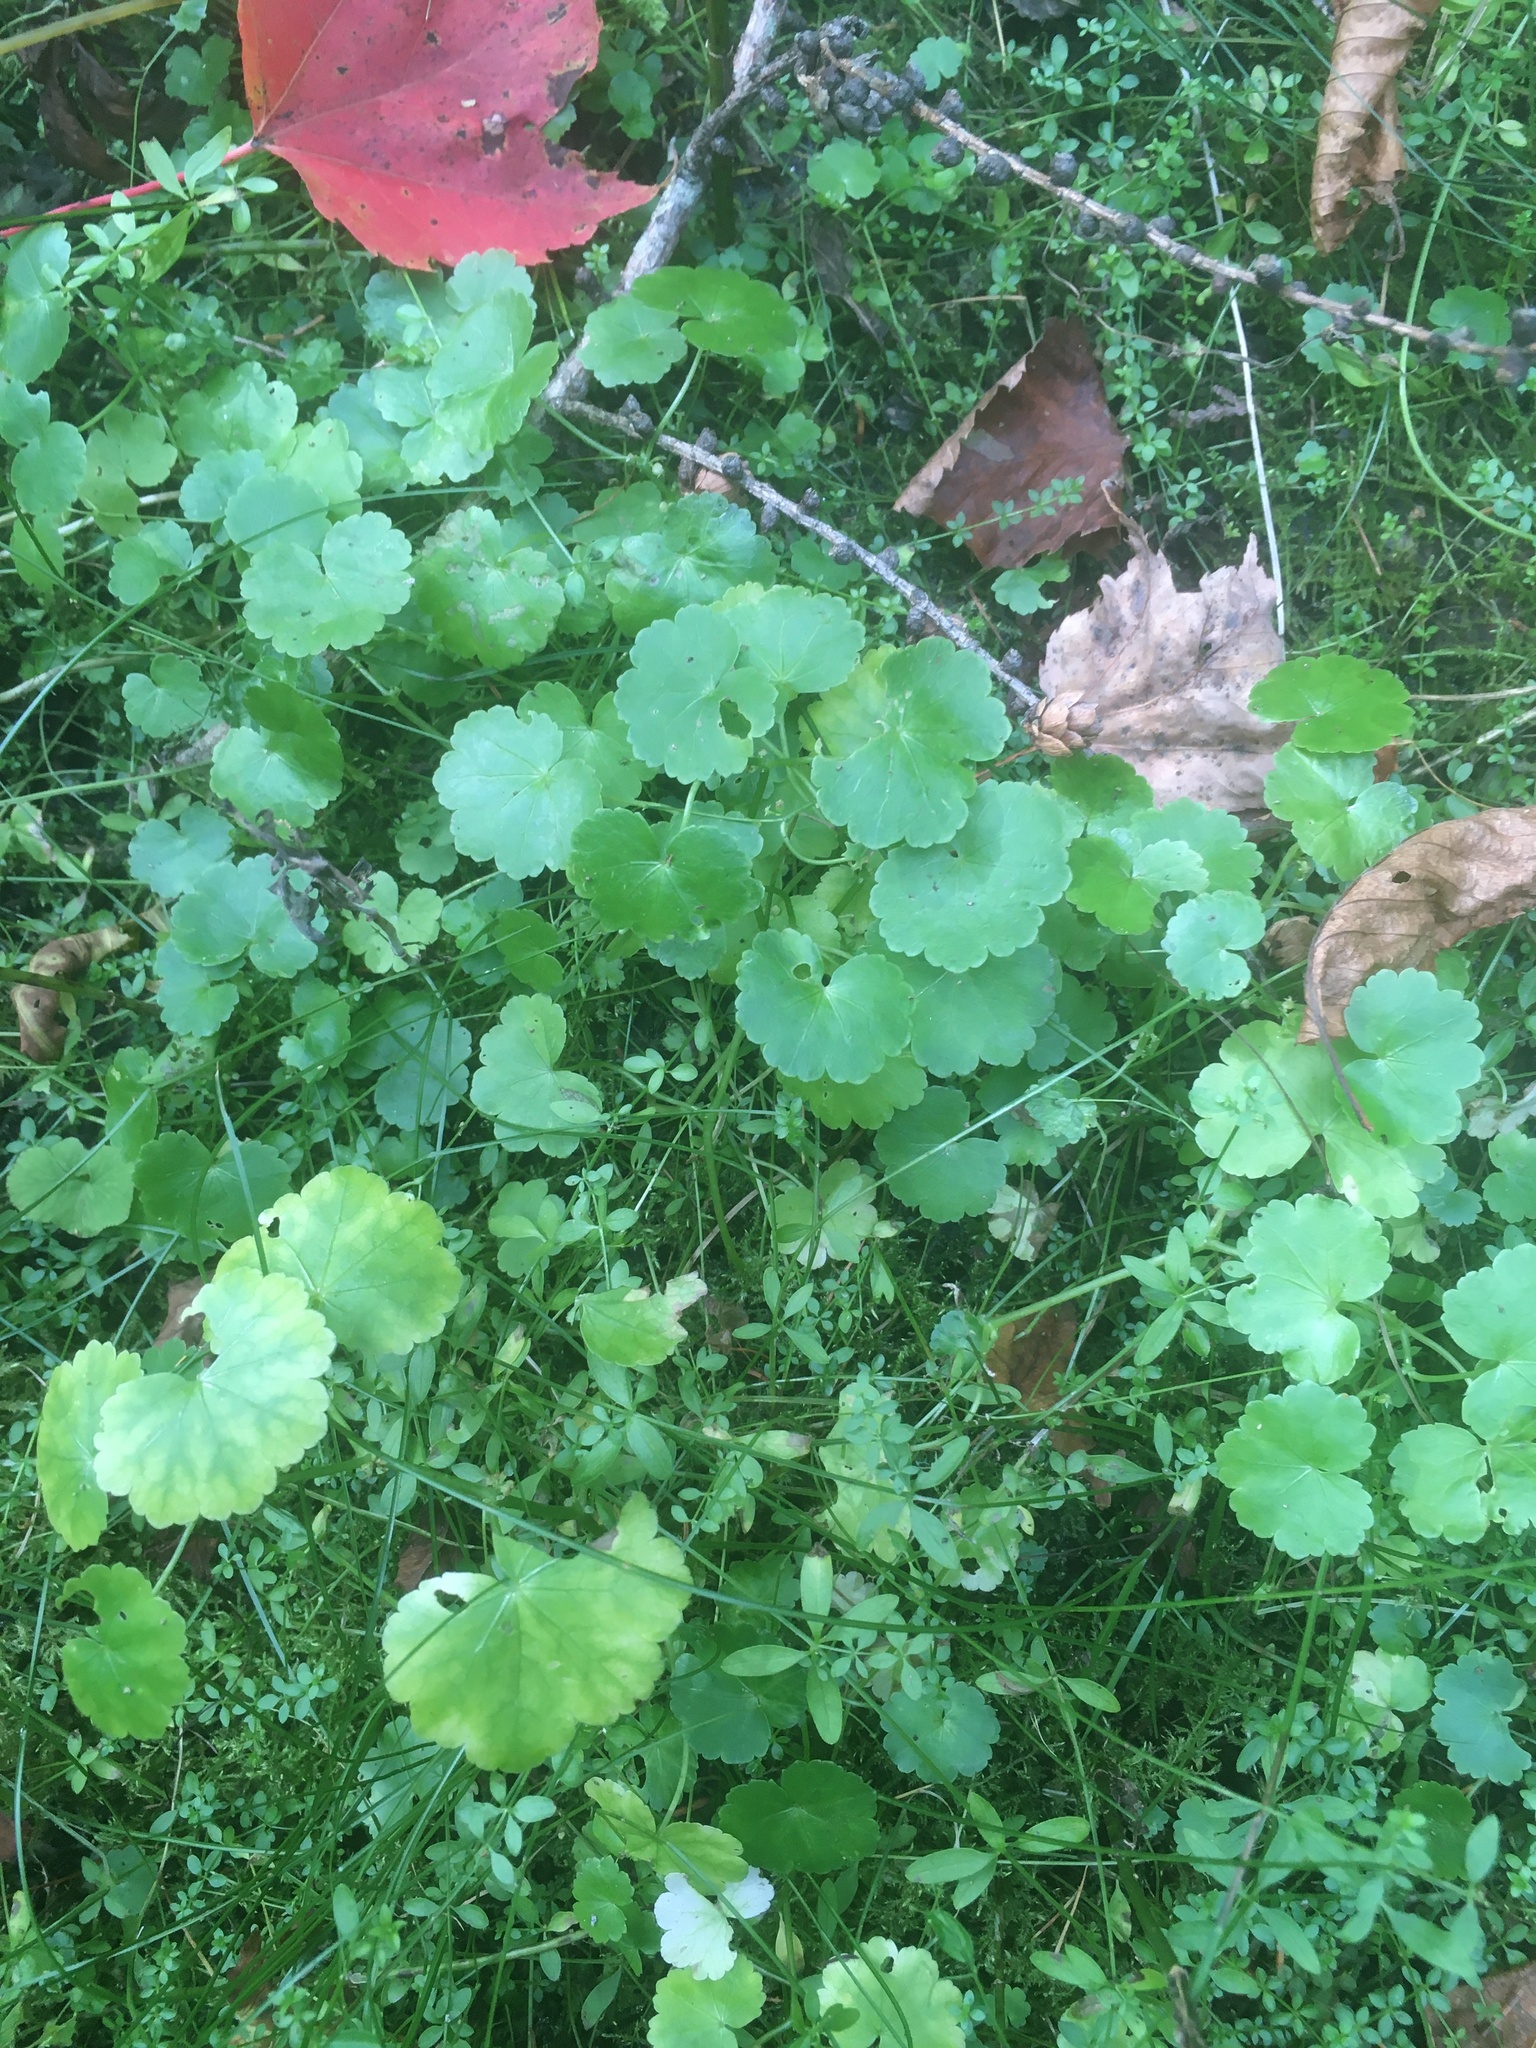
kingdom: Plantae
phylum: Tracheophyta
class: Magnoliopsida
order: Apiales
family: Araliaceae
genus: Hydrocotyle
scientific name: Hydrocotyle americana
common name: American water-pennywort
